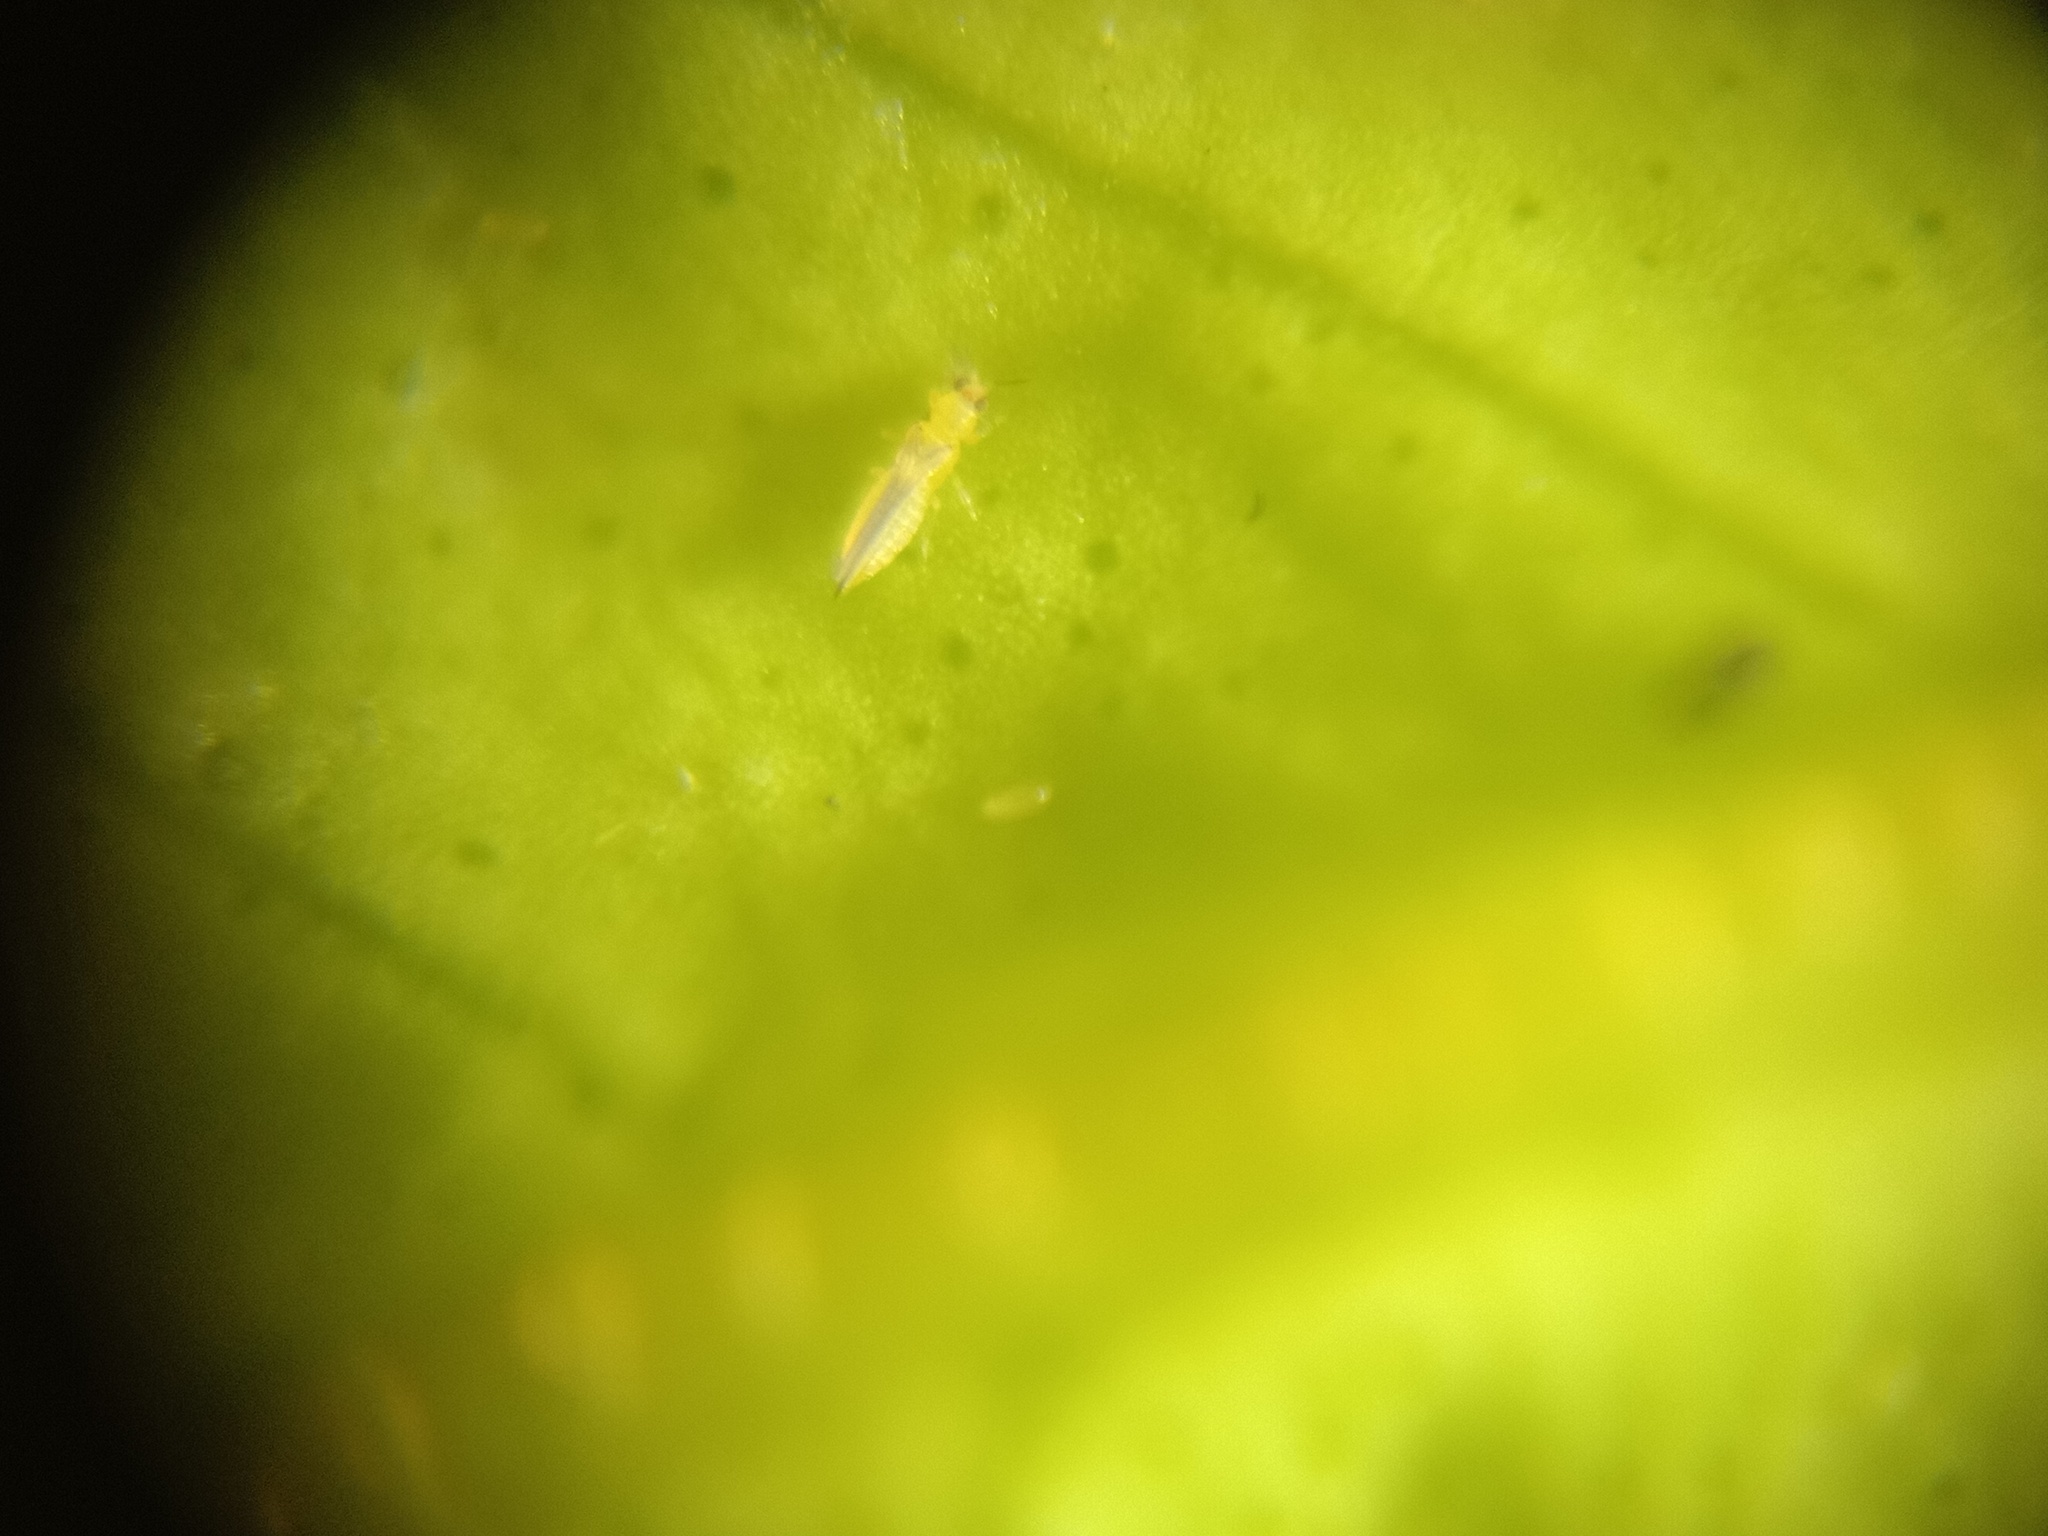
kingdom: Animalia
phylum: Arthropoda
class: Insecta
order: Thysanoptera
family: Thripidae
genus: Scirtothrips
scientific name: Scirtothrips dorsalis
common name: Thrips
